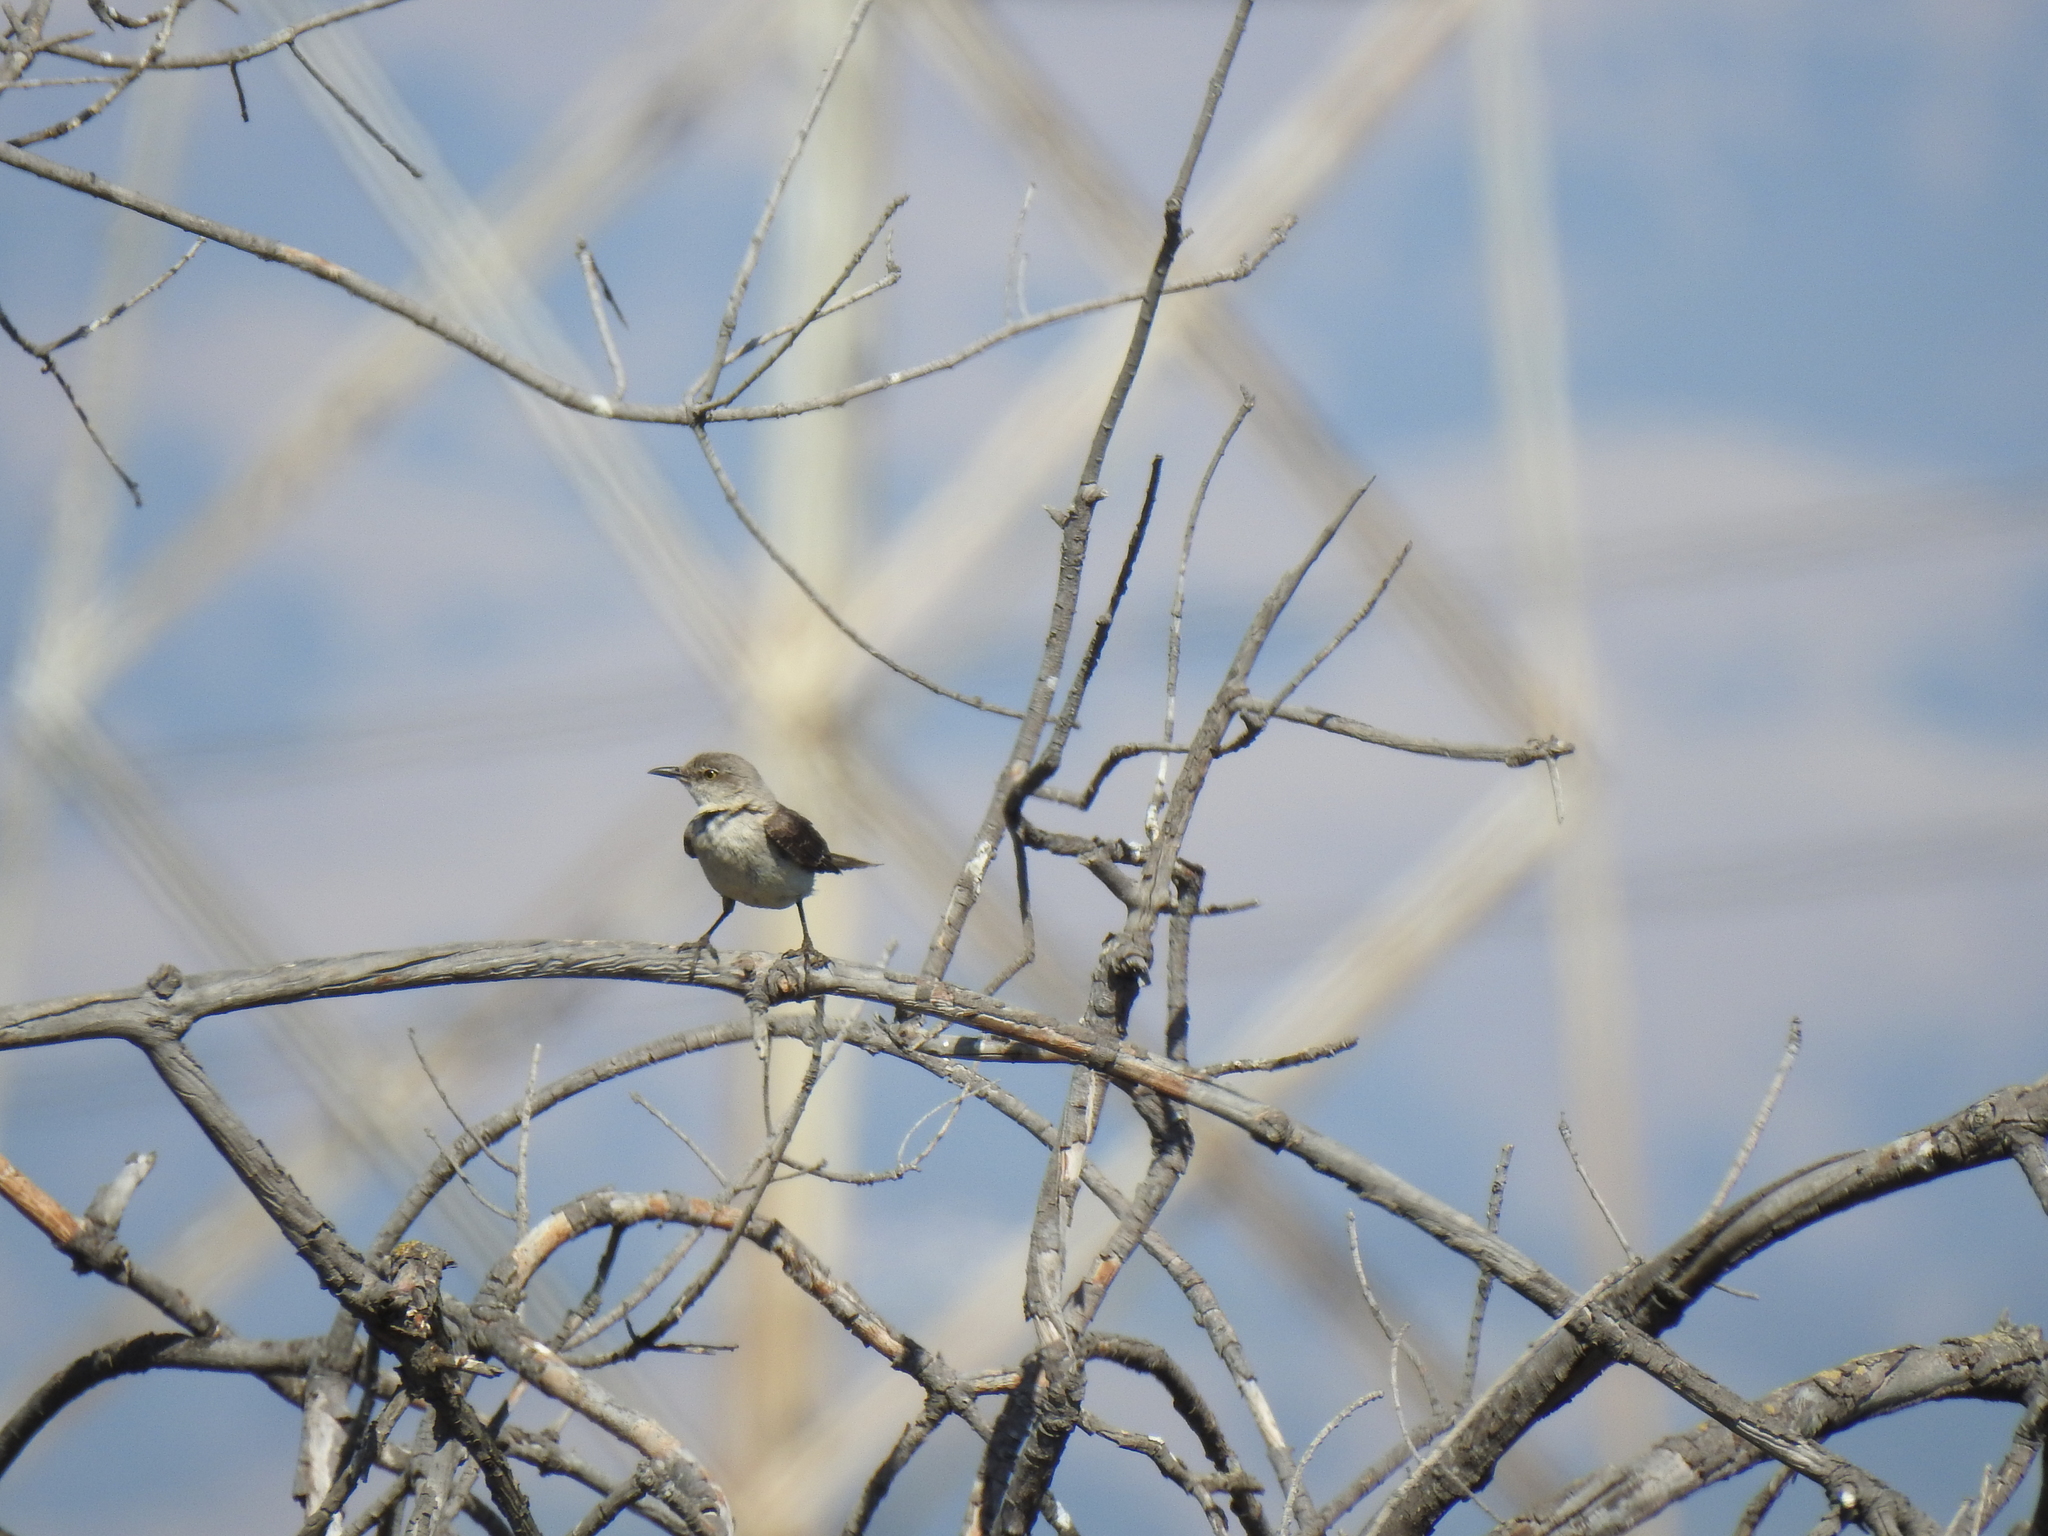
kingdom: Animalia
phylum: Chordata
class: Aves
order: Passeriformes
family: Mimidae
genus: Mimus
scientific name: Mimus polyglottos
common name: Northern mockingbird
